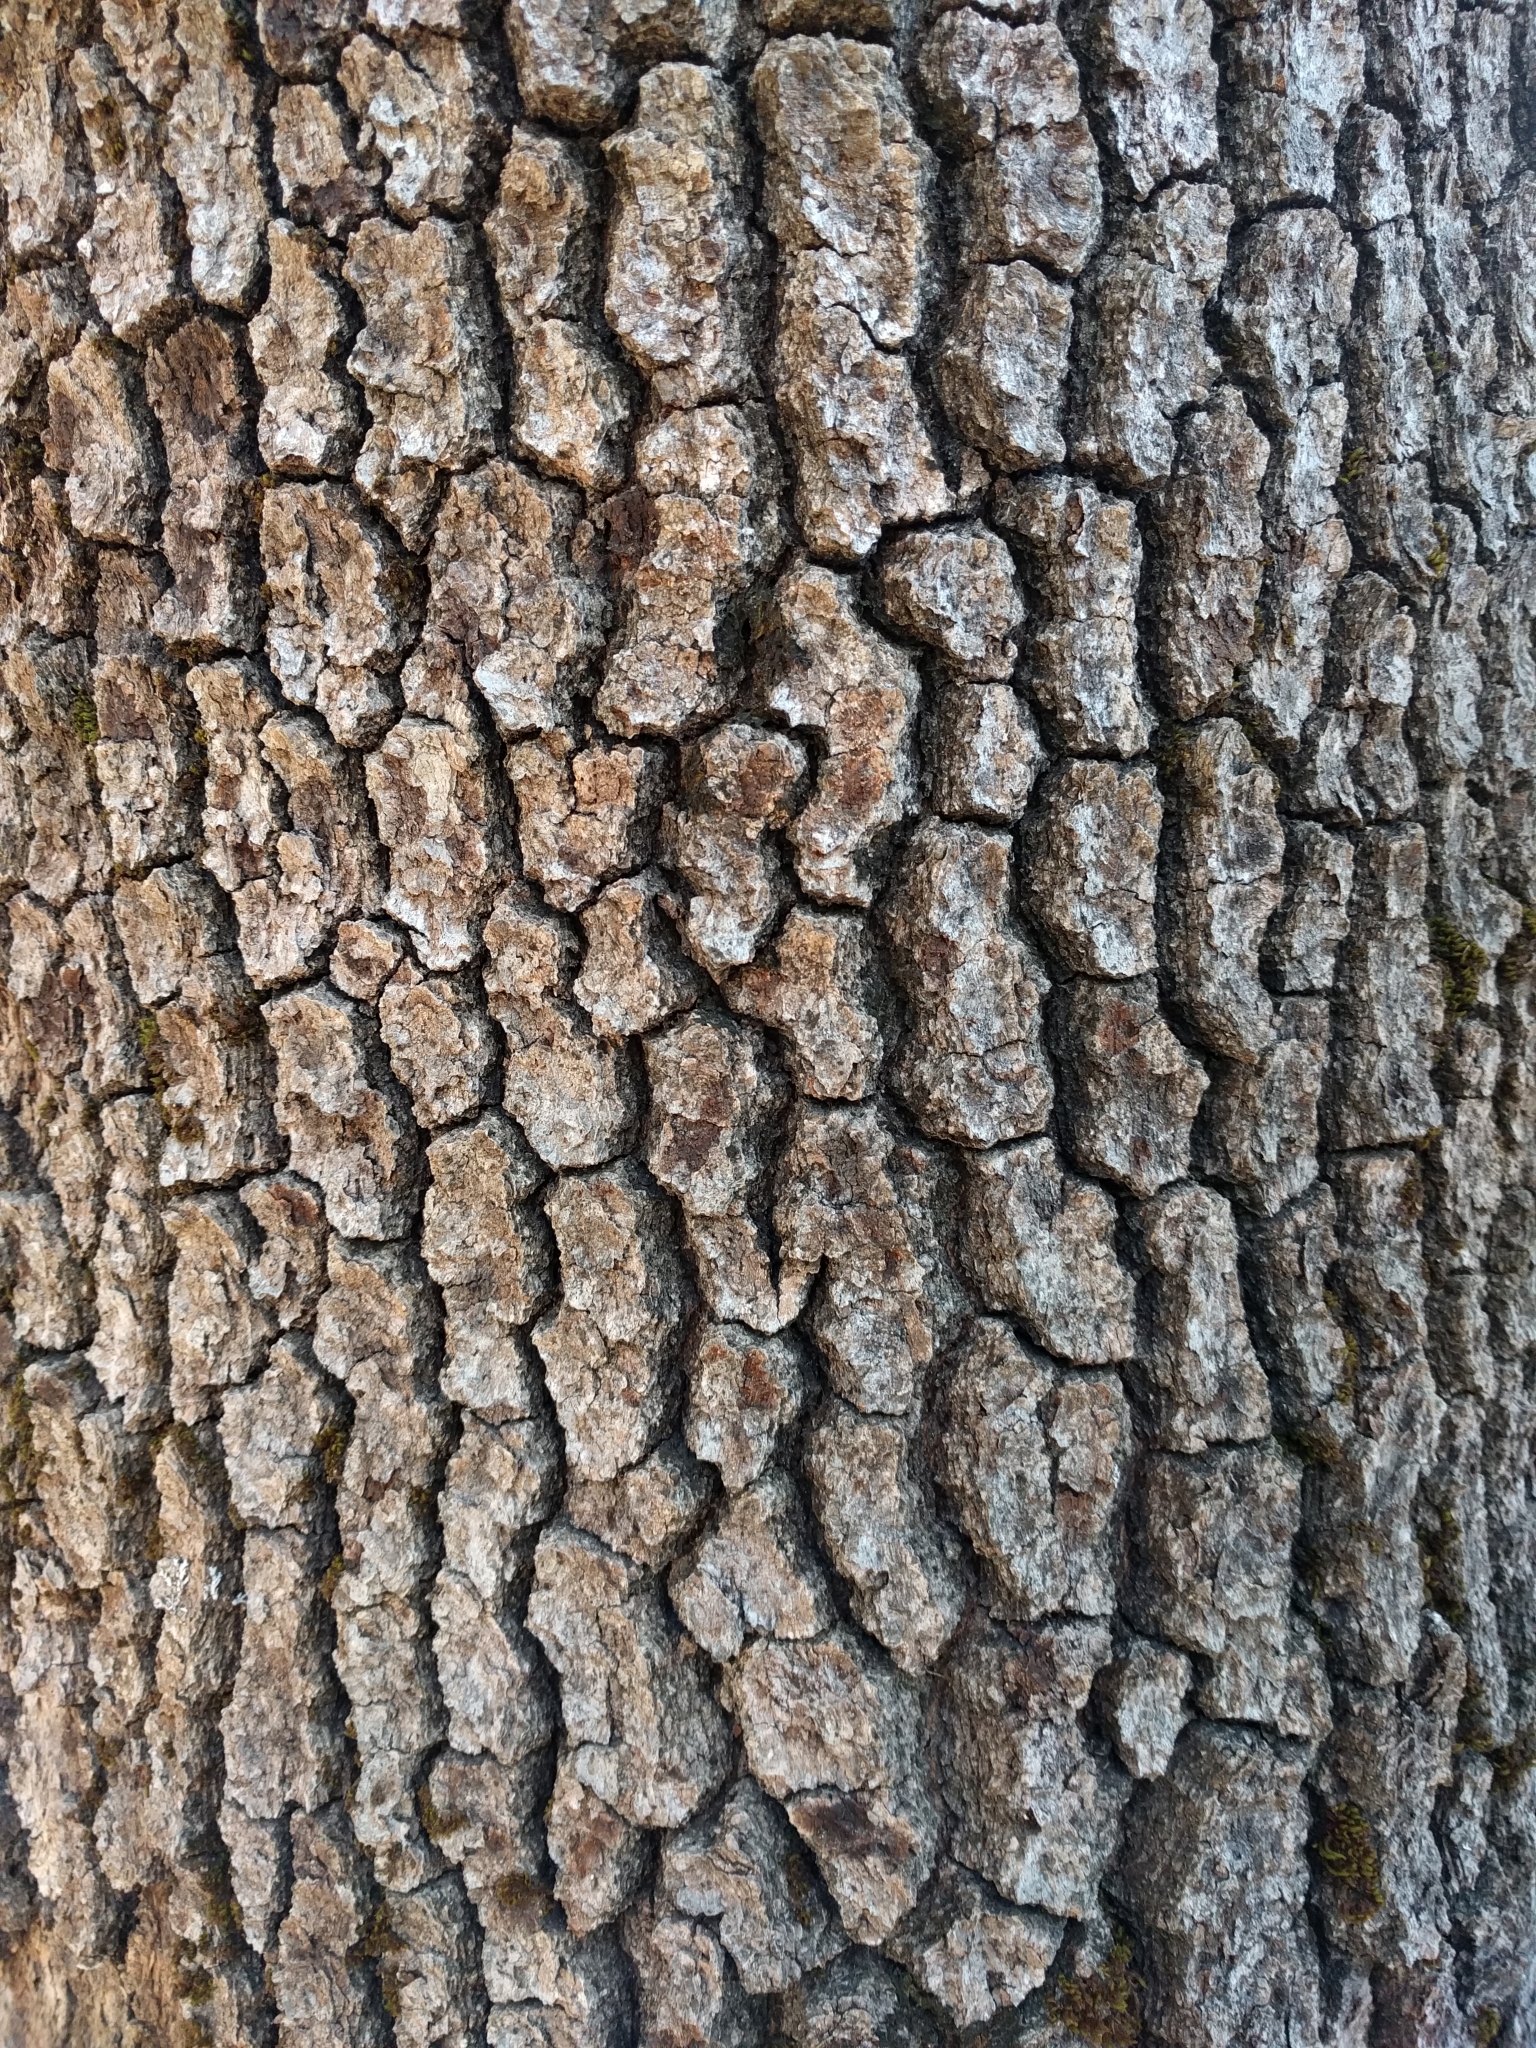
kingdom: Plantae
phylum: Tracheophyta
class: Magnoliopsida
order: Fagales
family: Fagaceae
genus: Quercus
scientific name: Quercus kelloggii
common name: California black oak
